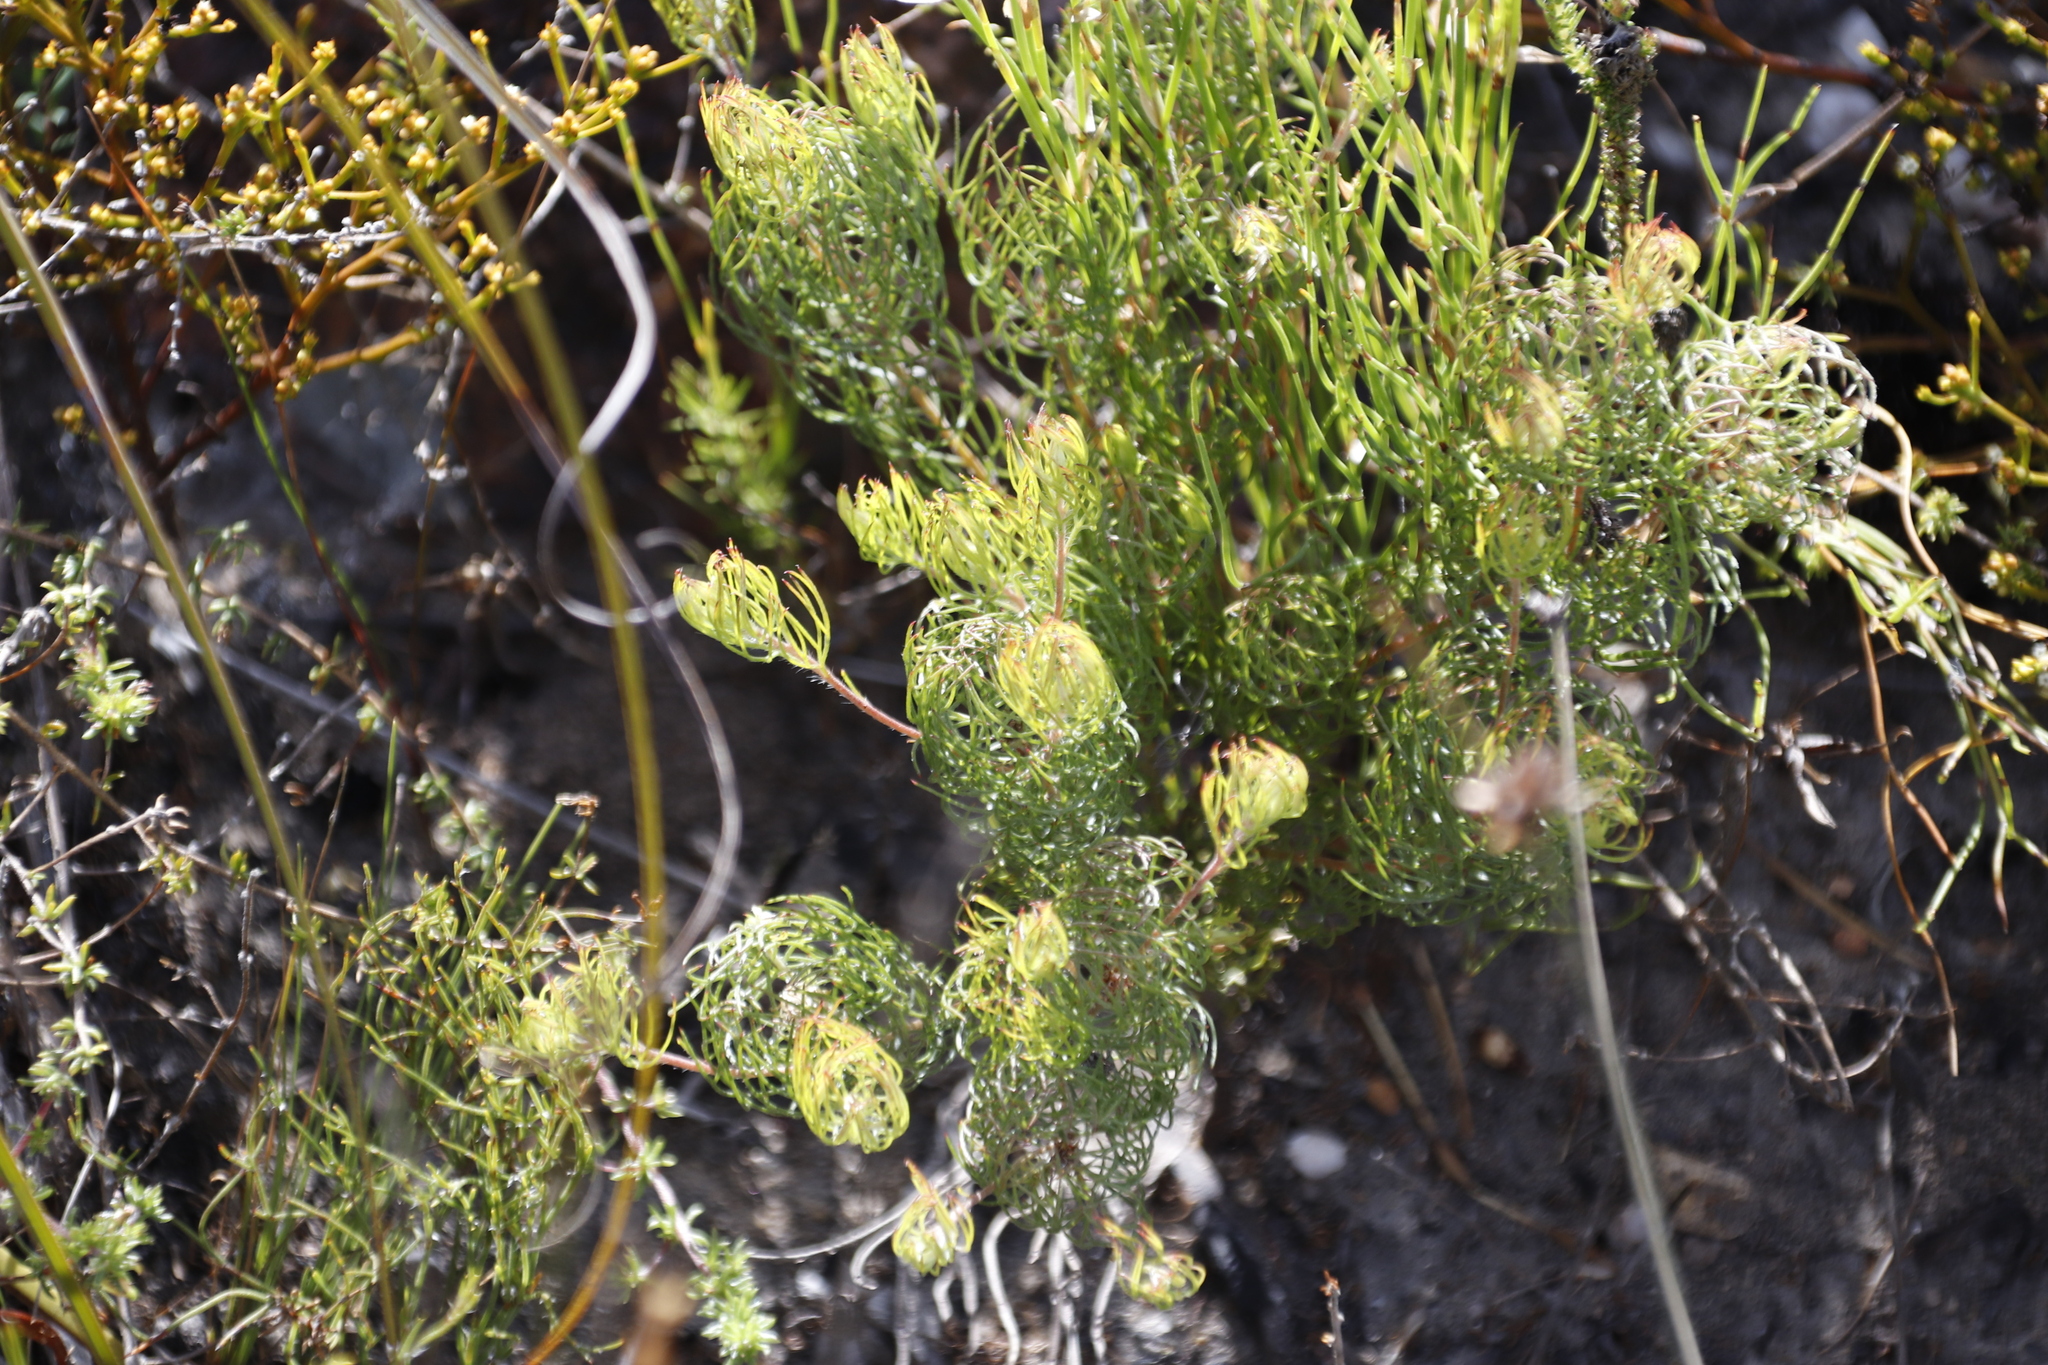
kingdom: Plantae
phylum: Tracheophyta
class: Magnoliopsida
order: Proteales
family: Proteaceae
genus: Serruria
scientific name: Serruria inconspicua
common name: Cryptic spiderhead
